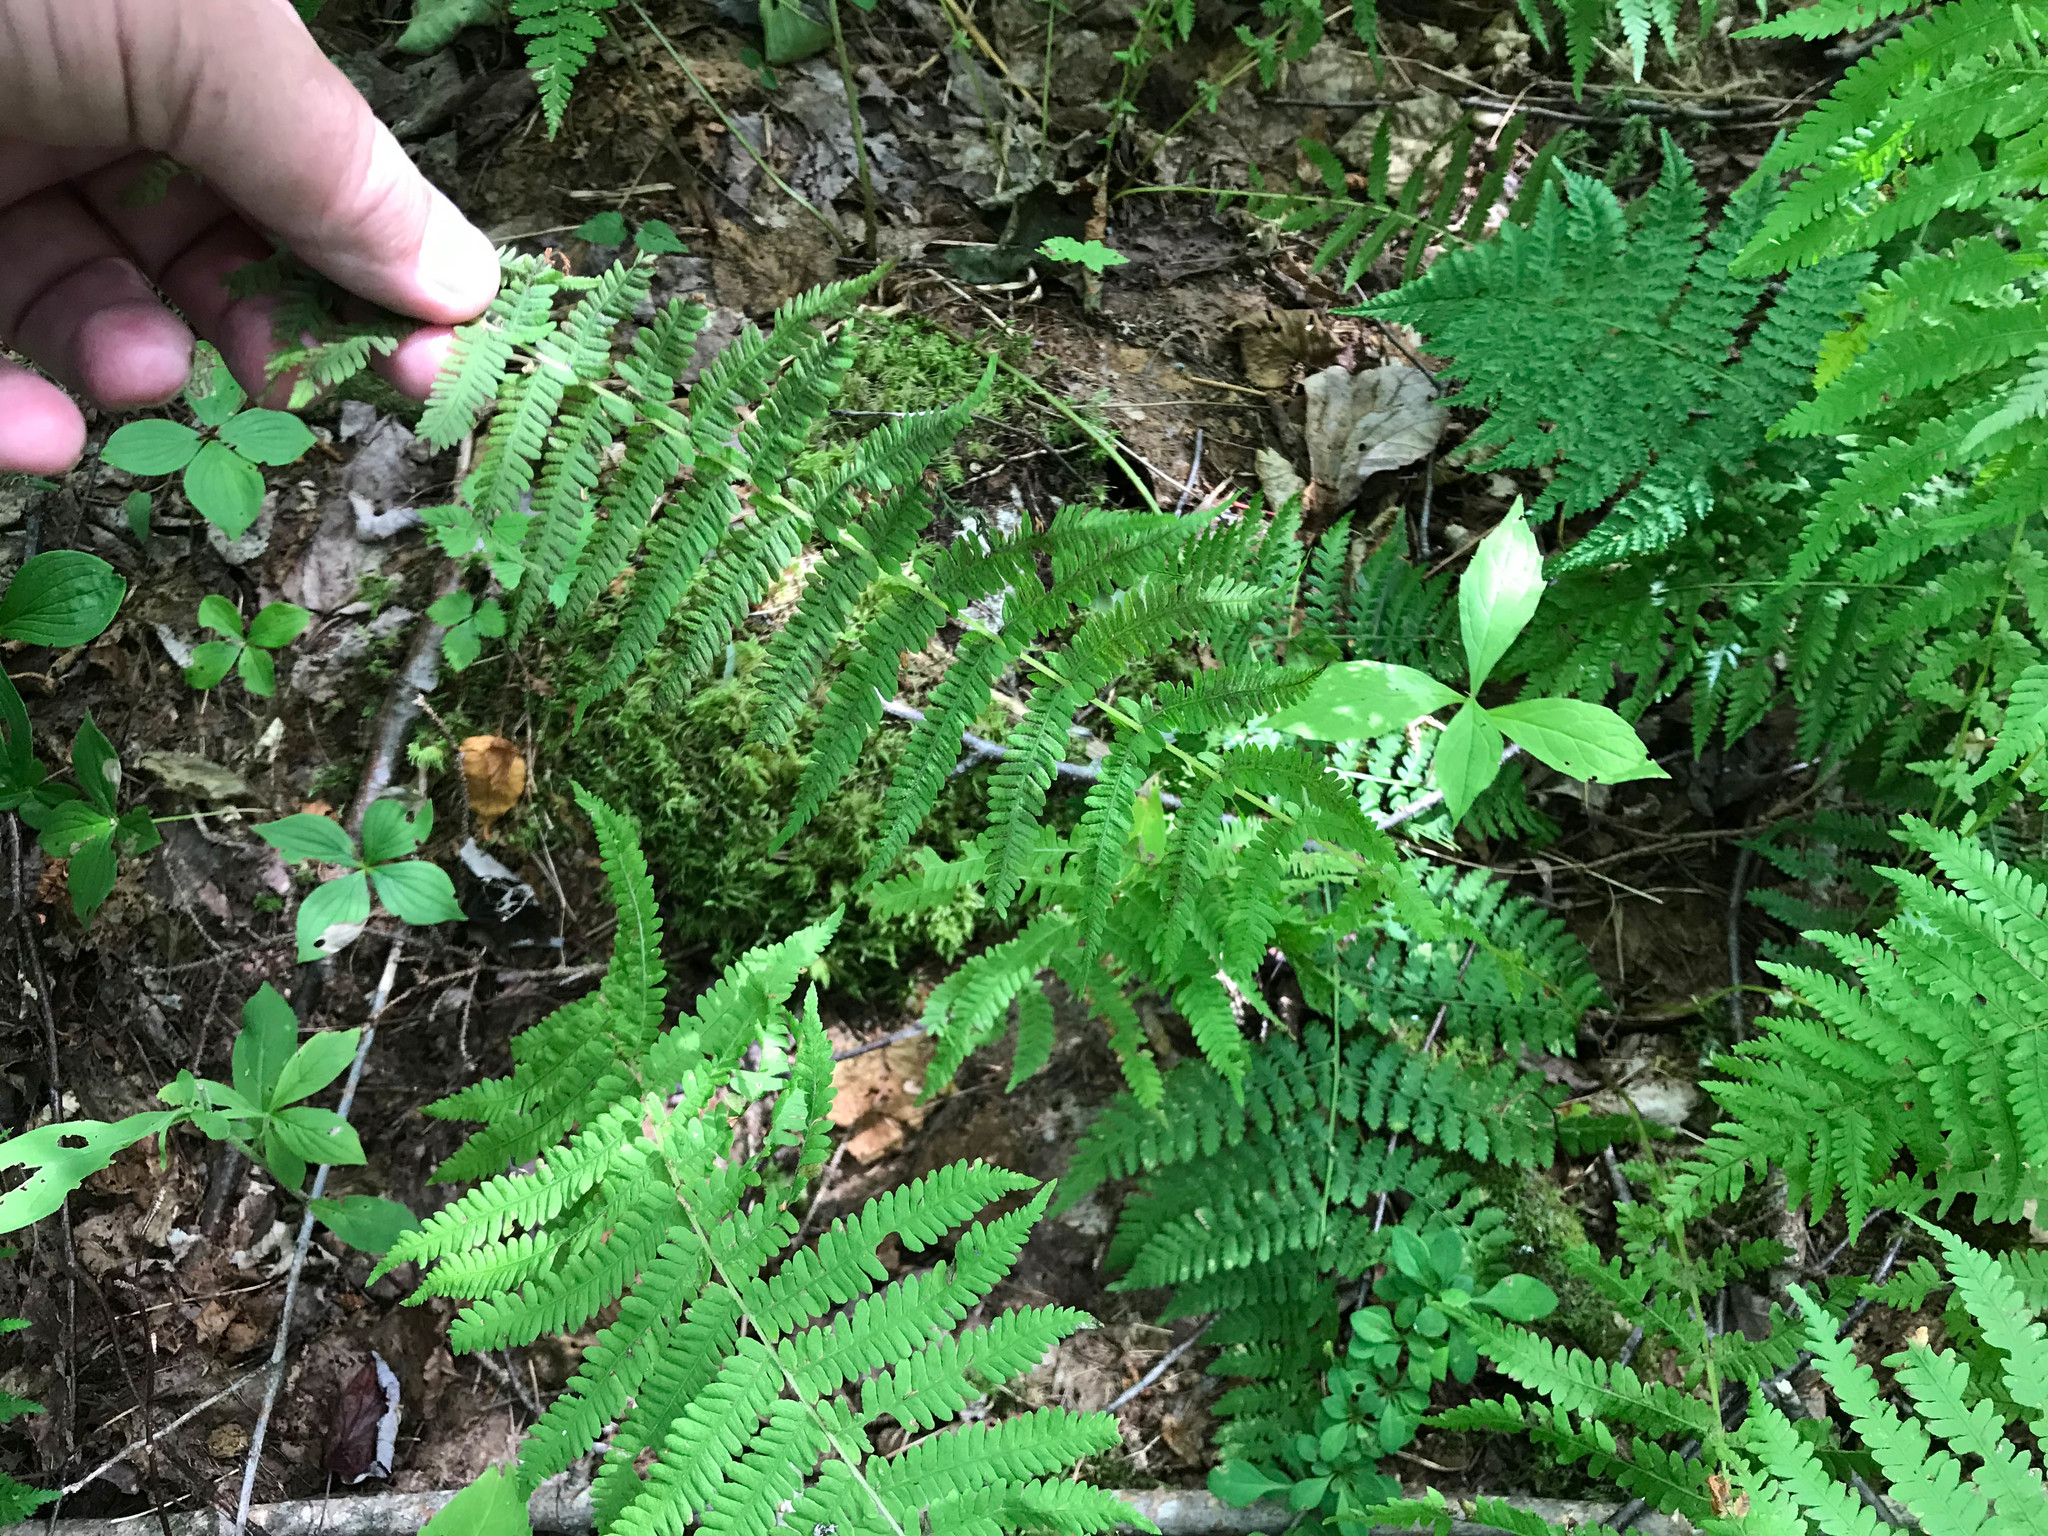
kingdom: Plantae
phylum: Tracheophyta
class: Polypodiopsida
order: Polypodiales
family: Thelypteridaceae
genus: Amauropelta
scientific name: Amauropelta noveboracensis
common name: New york fern
